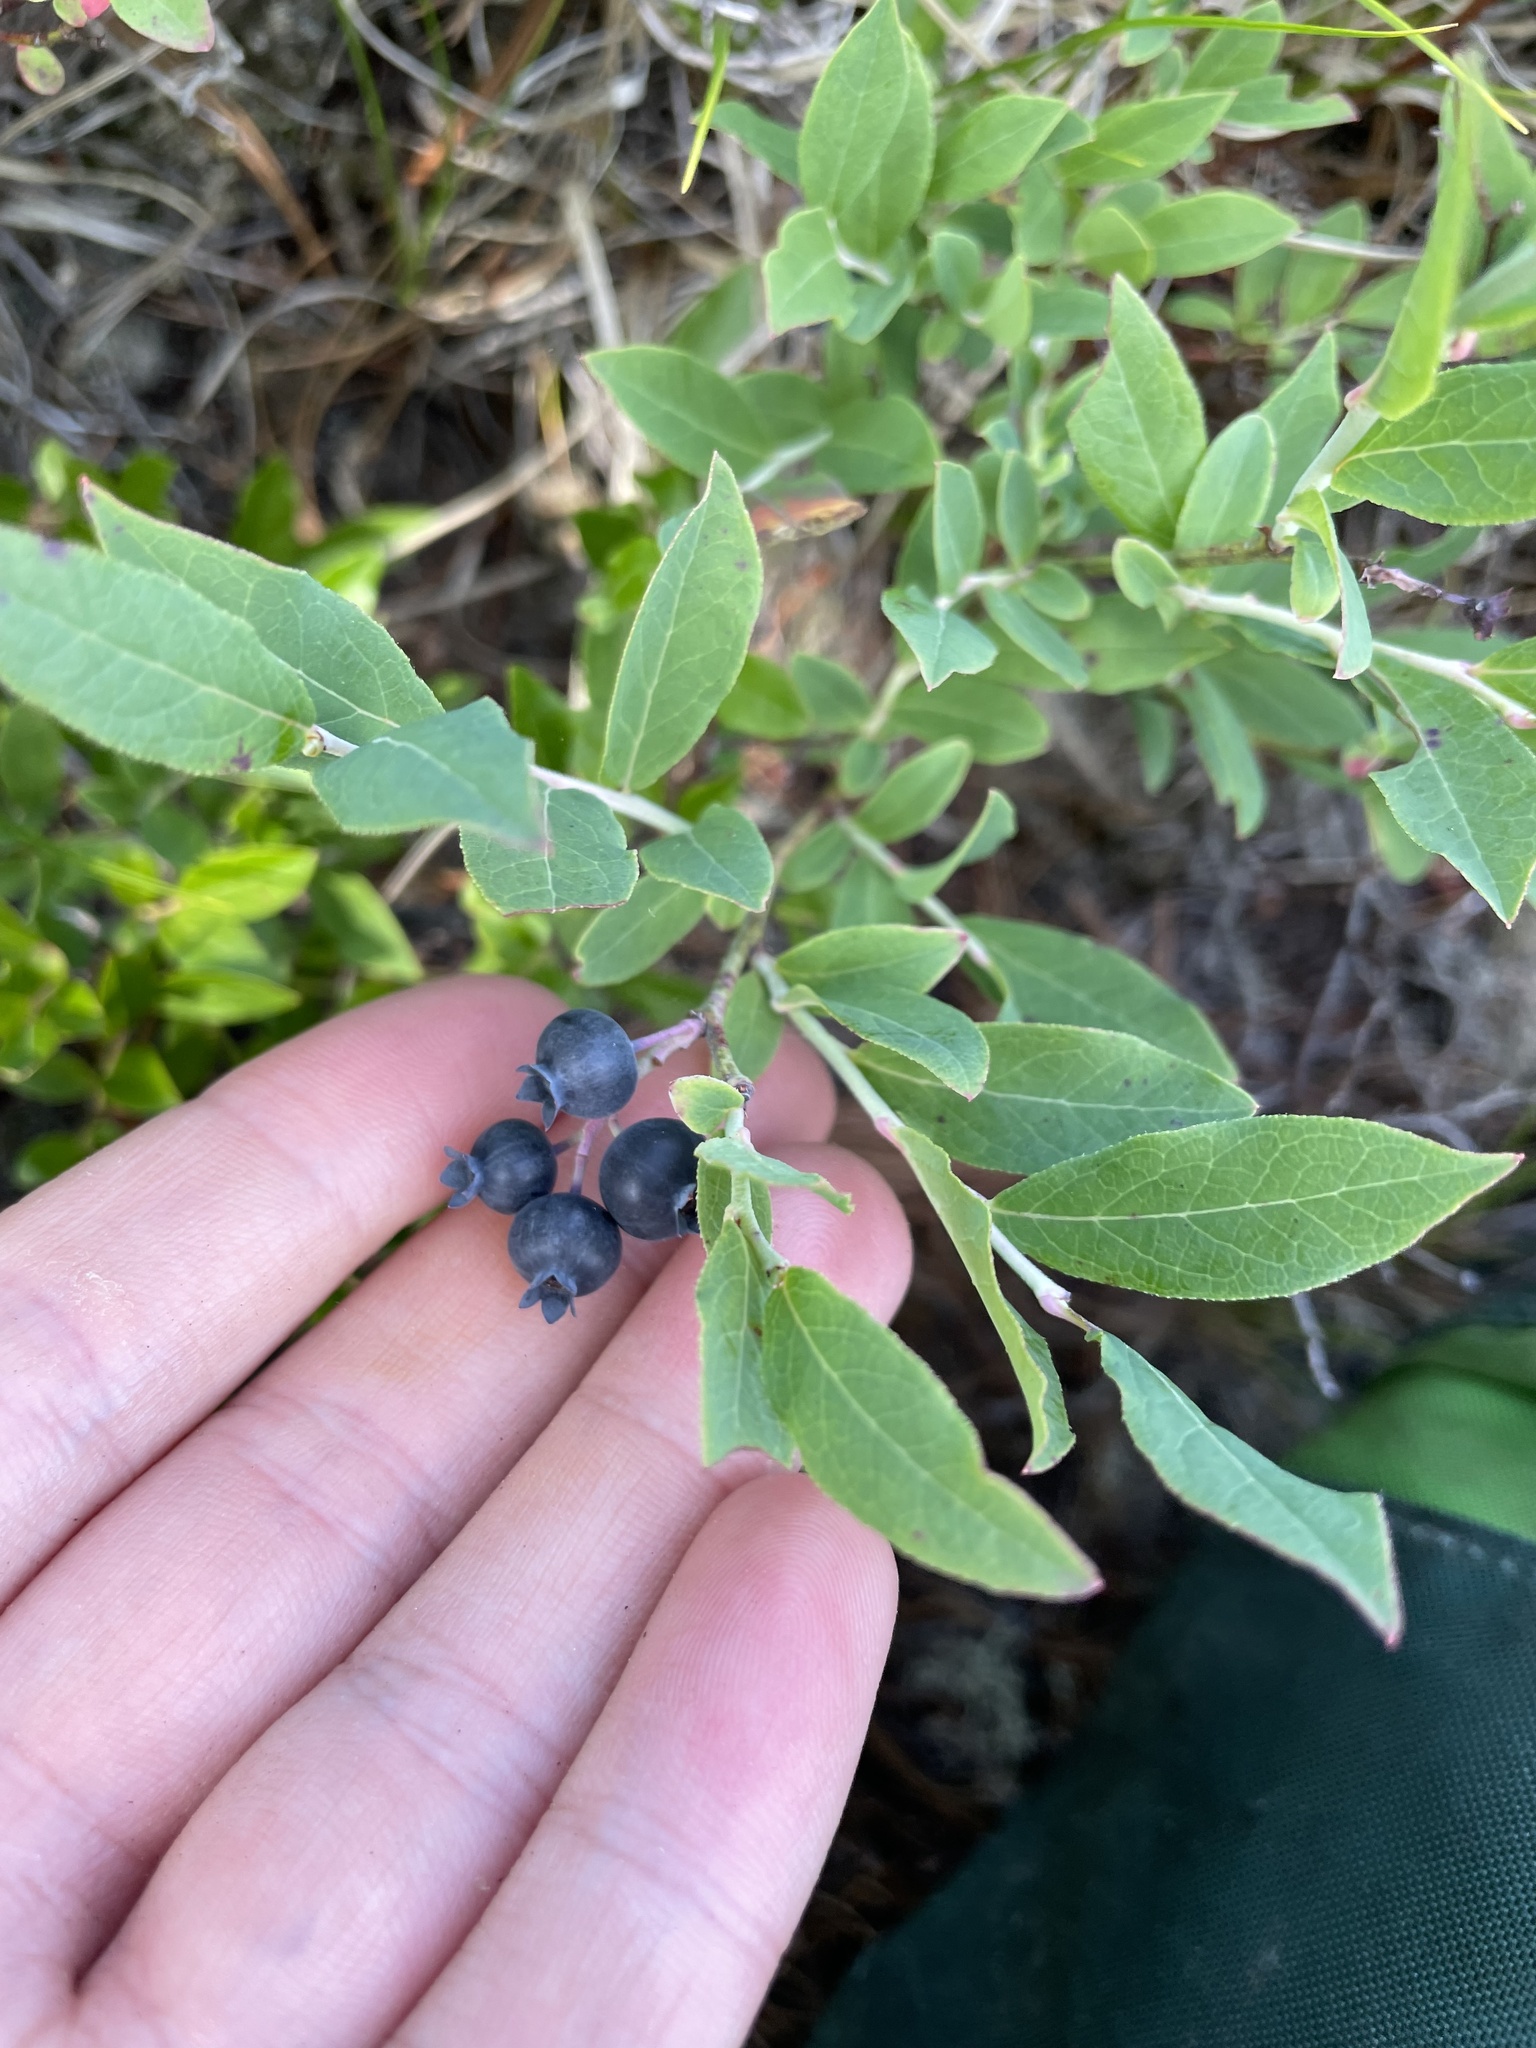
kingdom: Plantae
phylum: Tracheophyta
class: Magnoliopsida
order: Ericales
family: Ericaceae
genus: Vaccinium
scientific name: Vaccinium angustifolium
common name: Early lowbush blueberry
